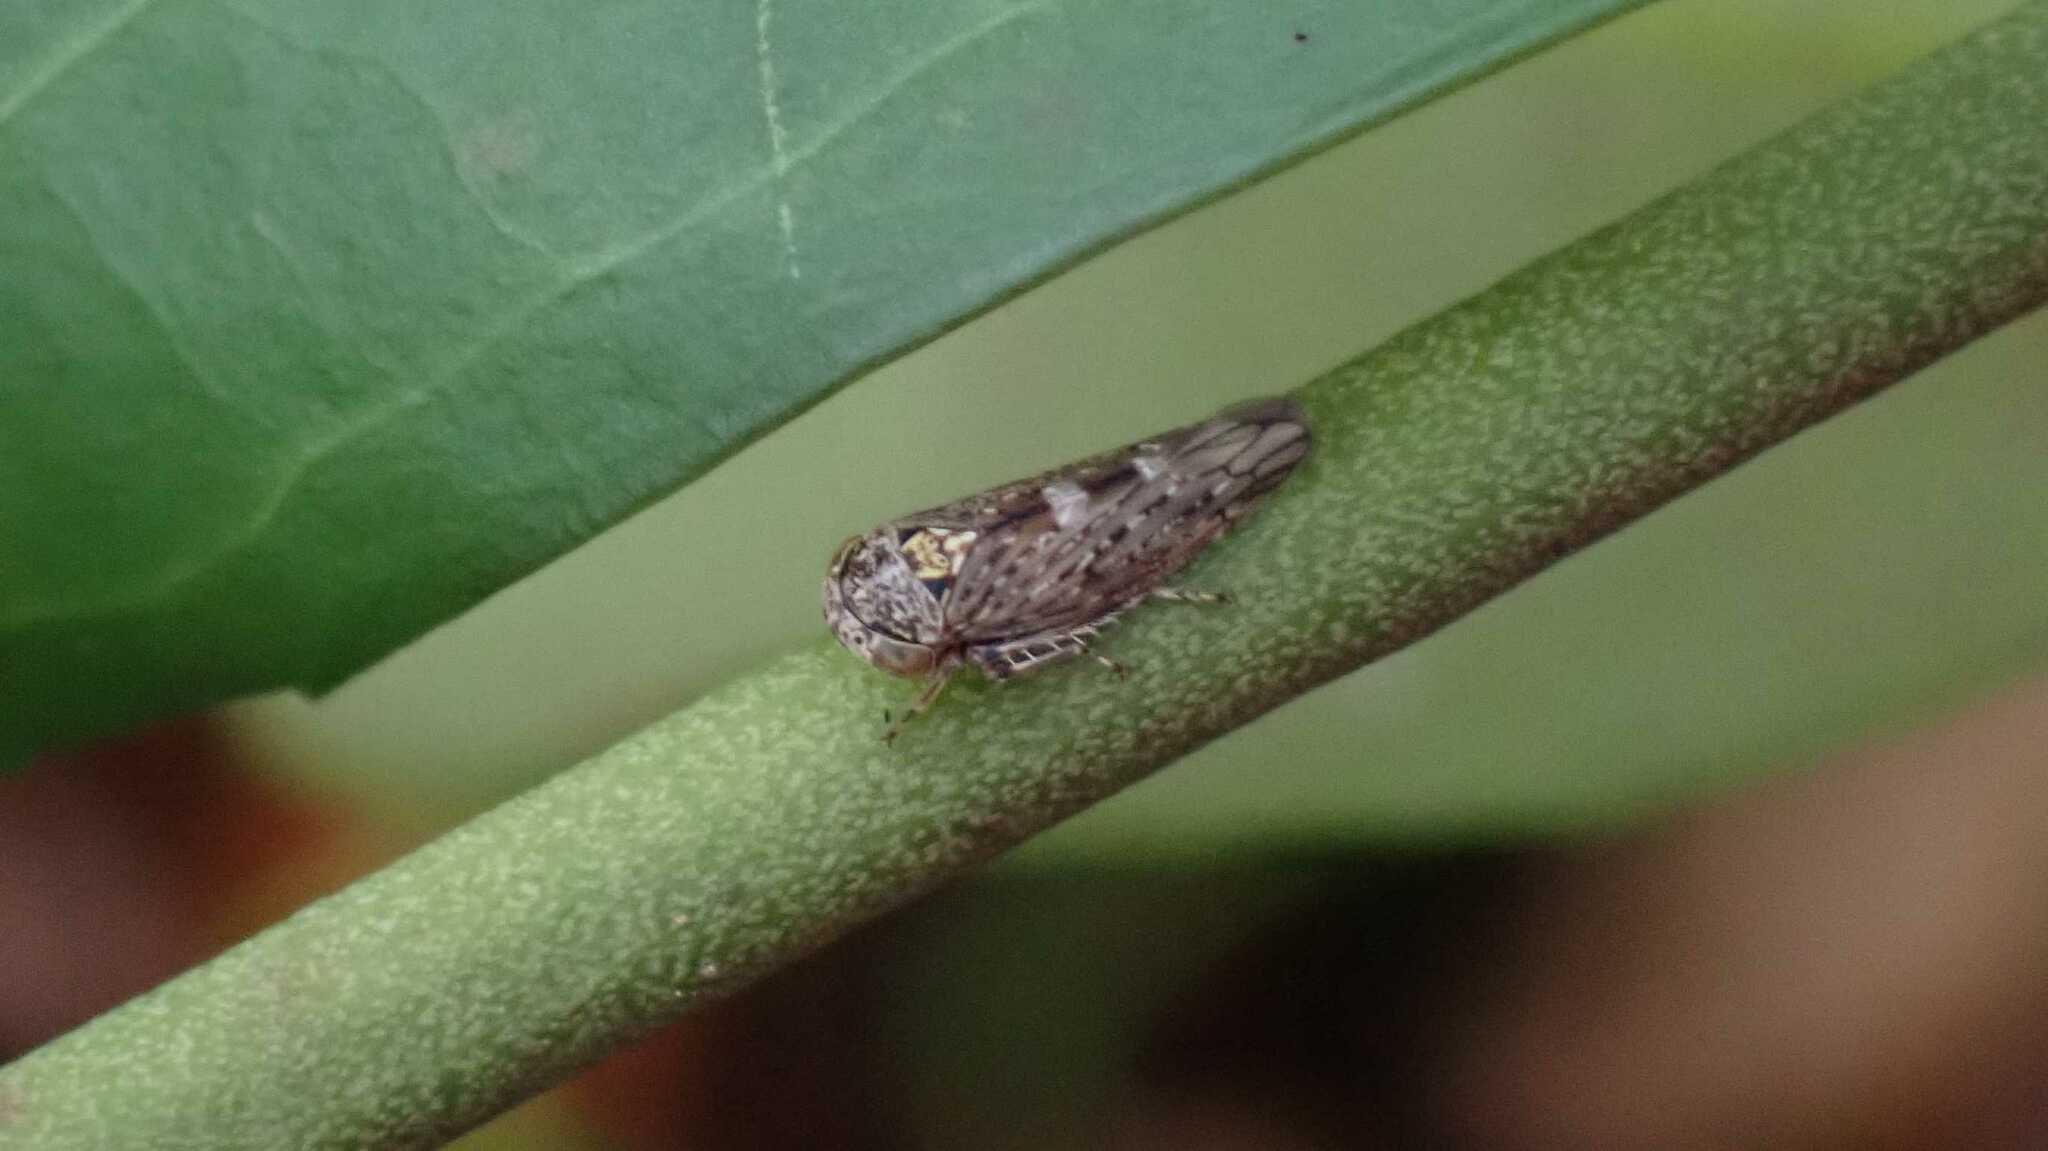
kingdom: Animalia
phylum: Arthropoda
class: Insecta
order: Hemiptera
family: Cicadellidae
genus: Acericerus
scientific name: Acericerus vittifrons
